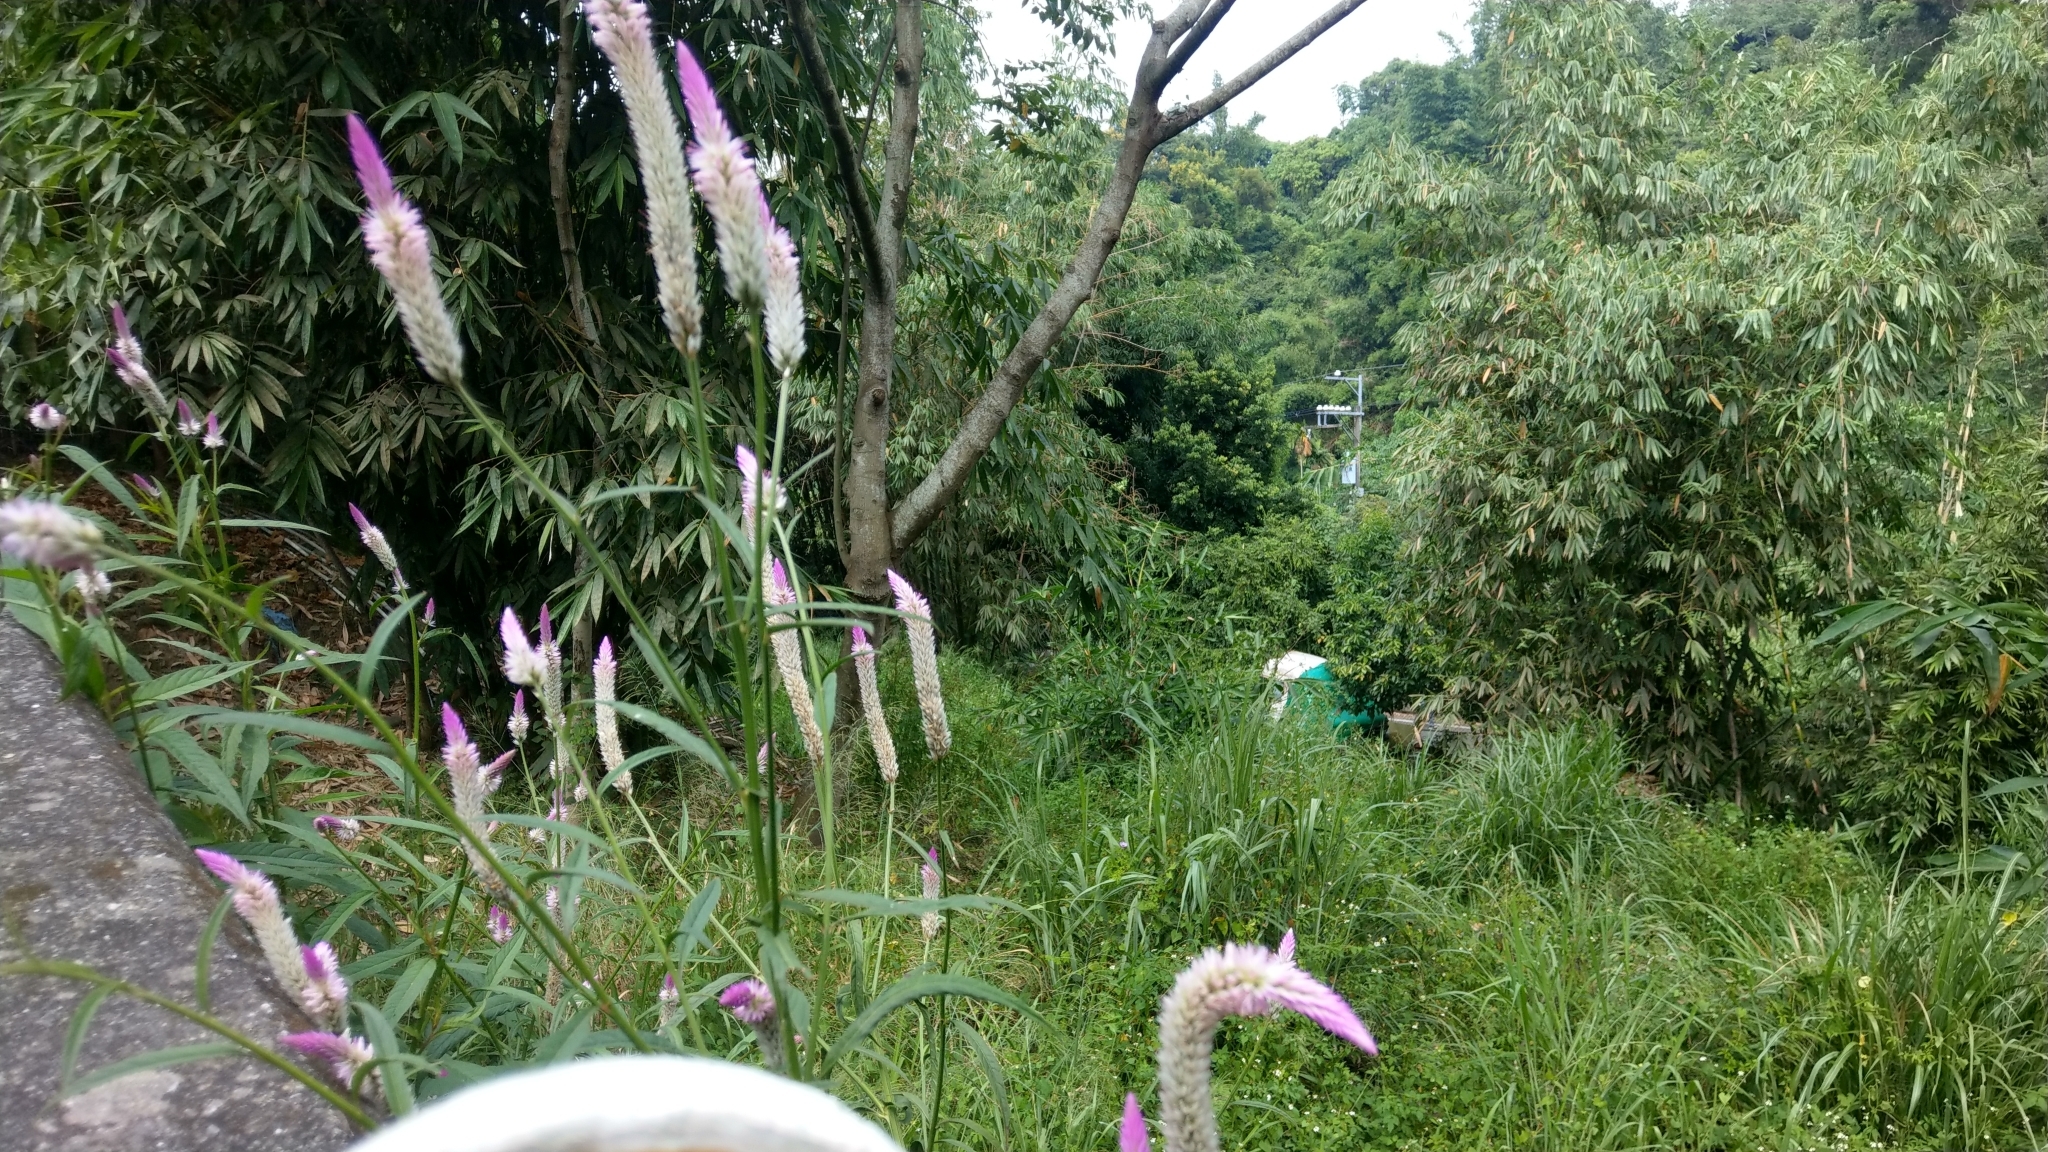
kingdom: Plantae
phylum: Tracheophyta
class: Magnoliopsida
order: Caryophyllales
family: Amaranthaceae
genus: Celosia
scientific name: Celosia argentea
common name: Feather cockscomb
